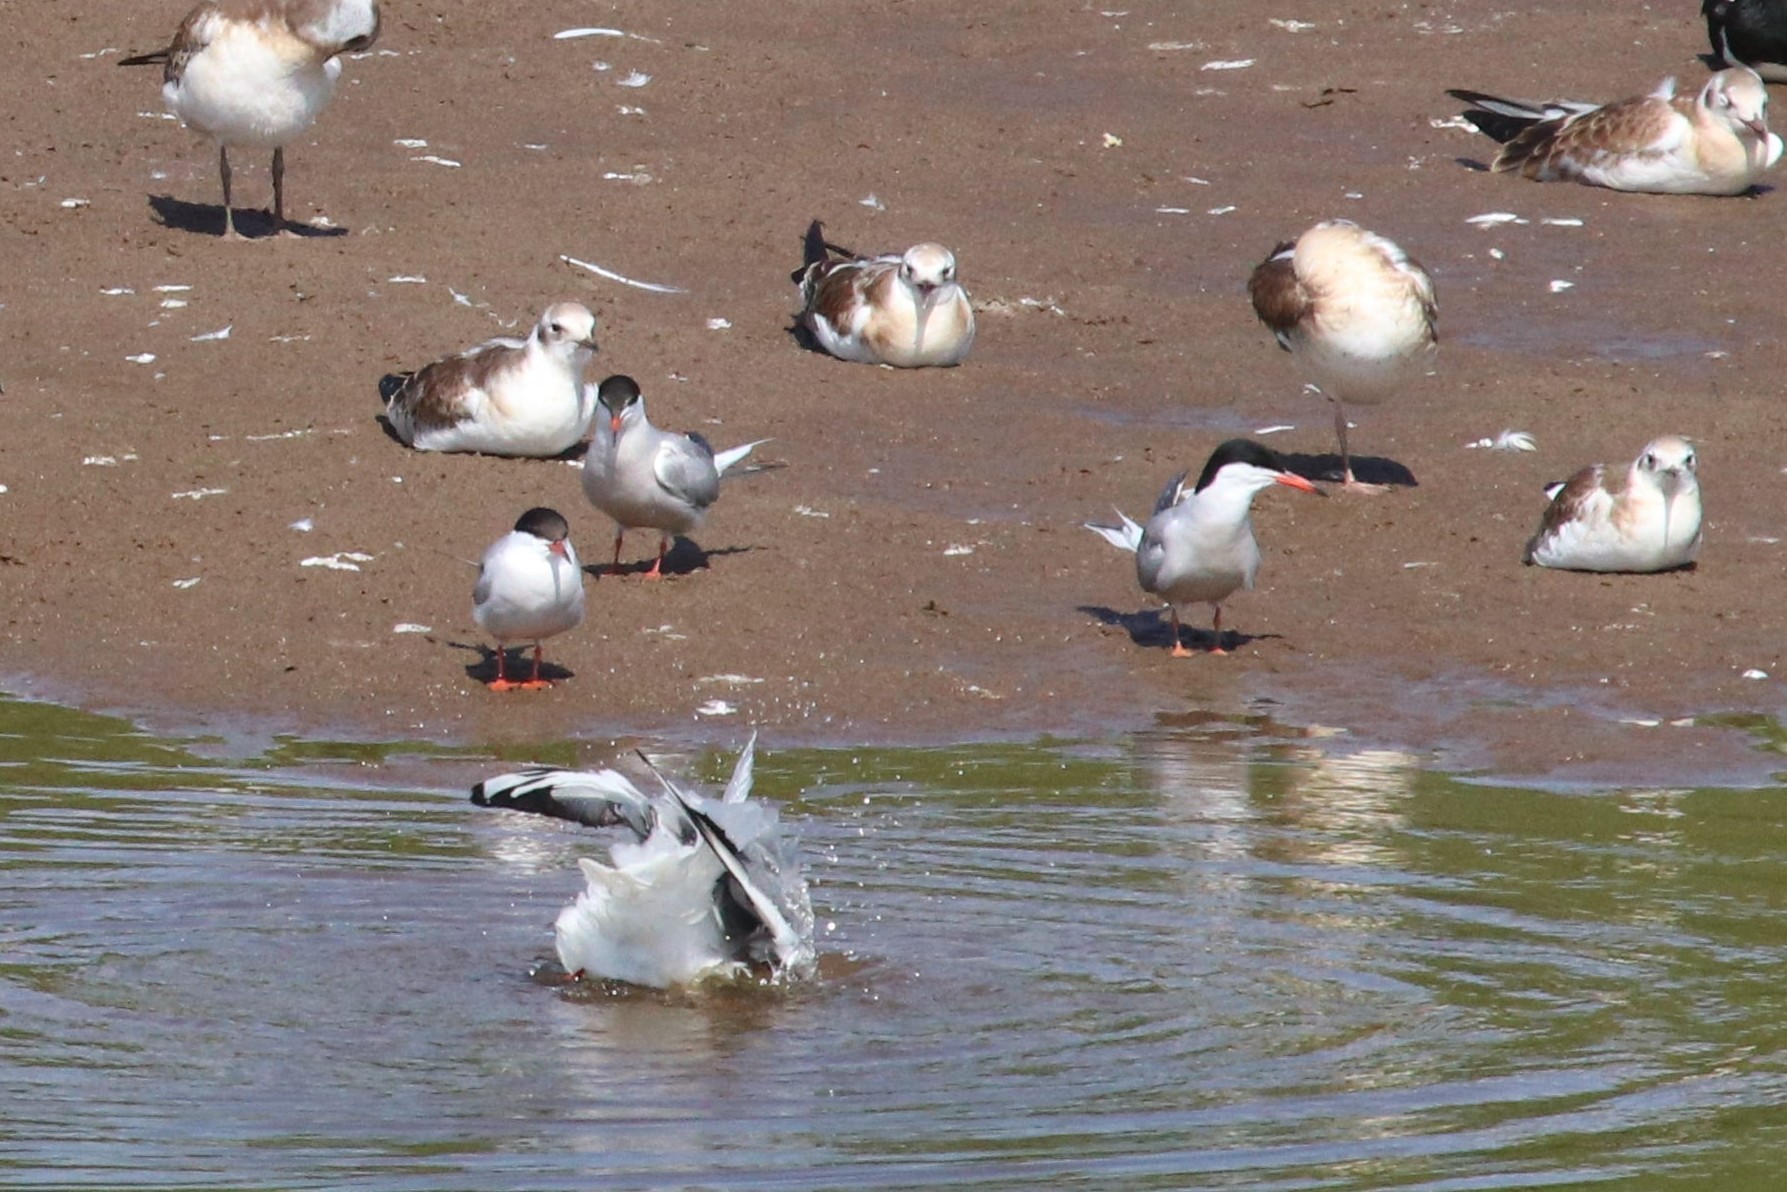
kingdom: Animalia
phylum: Chordata
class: Aves
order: Charadriiformes
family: Laridae
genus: Sterna
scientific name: Sterna hirundo
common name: Common tern
